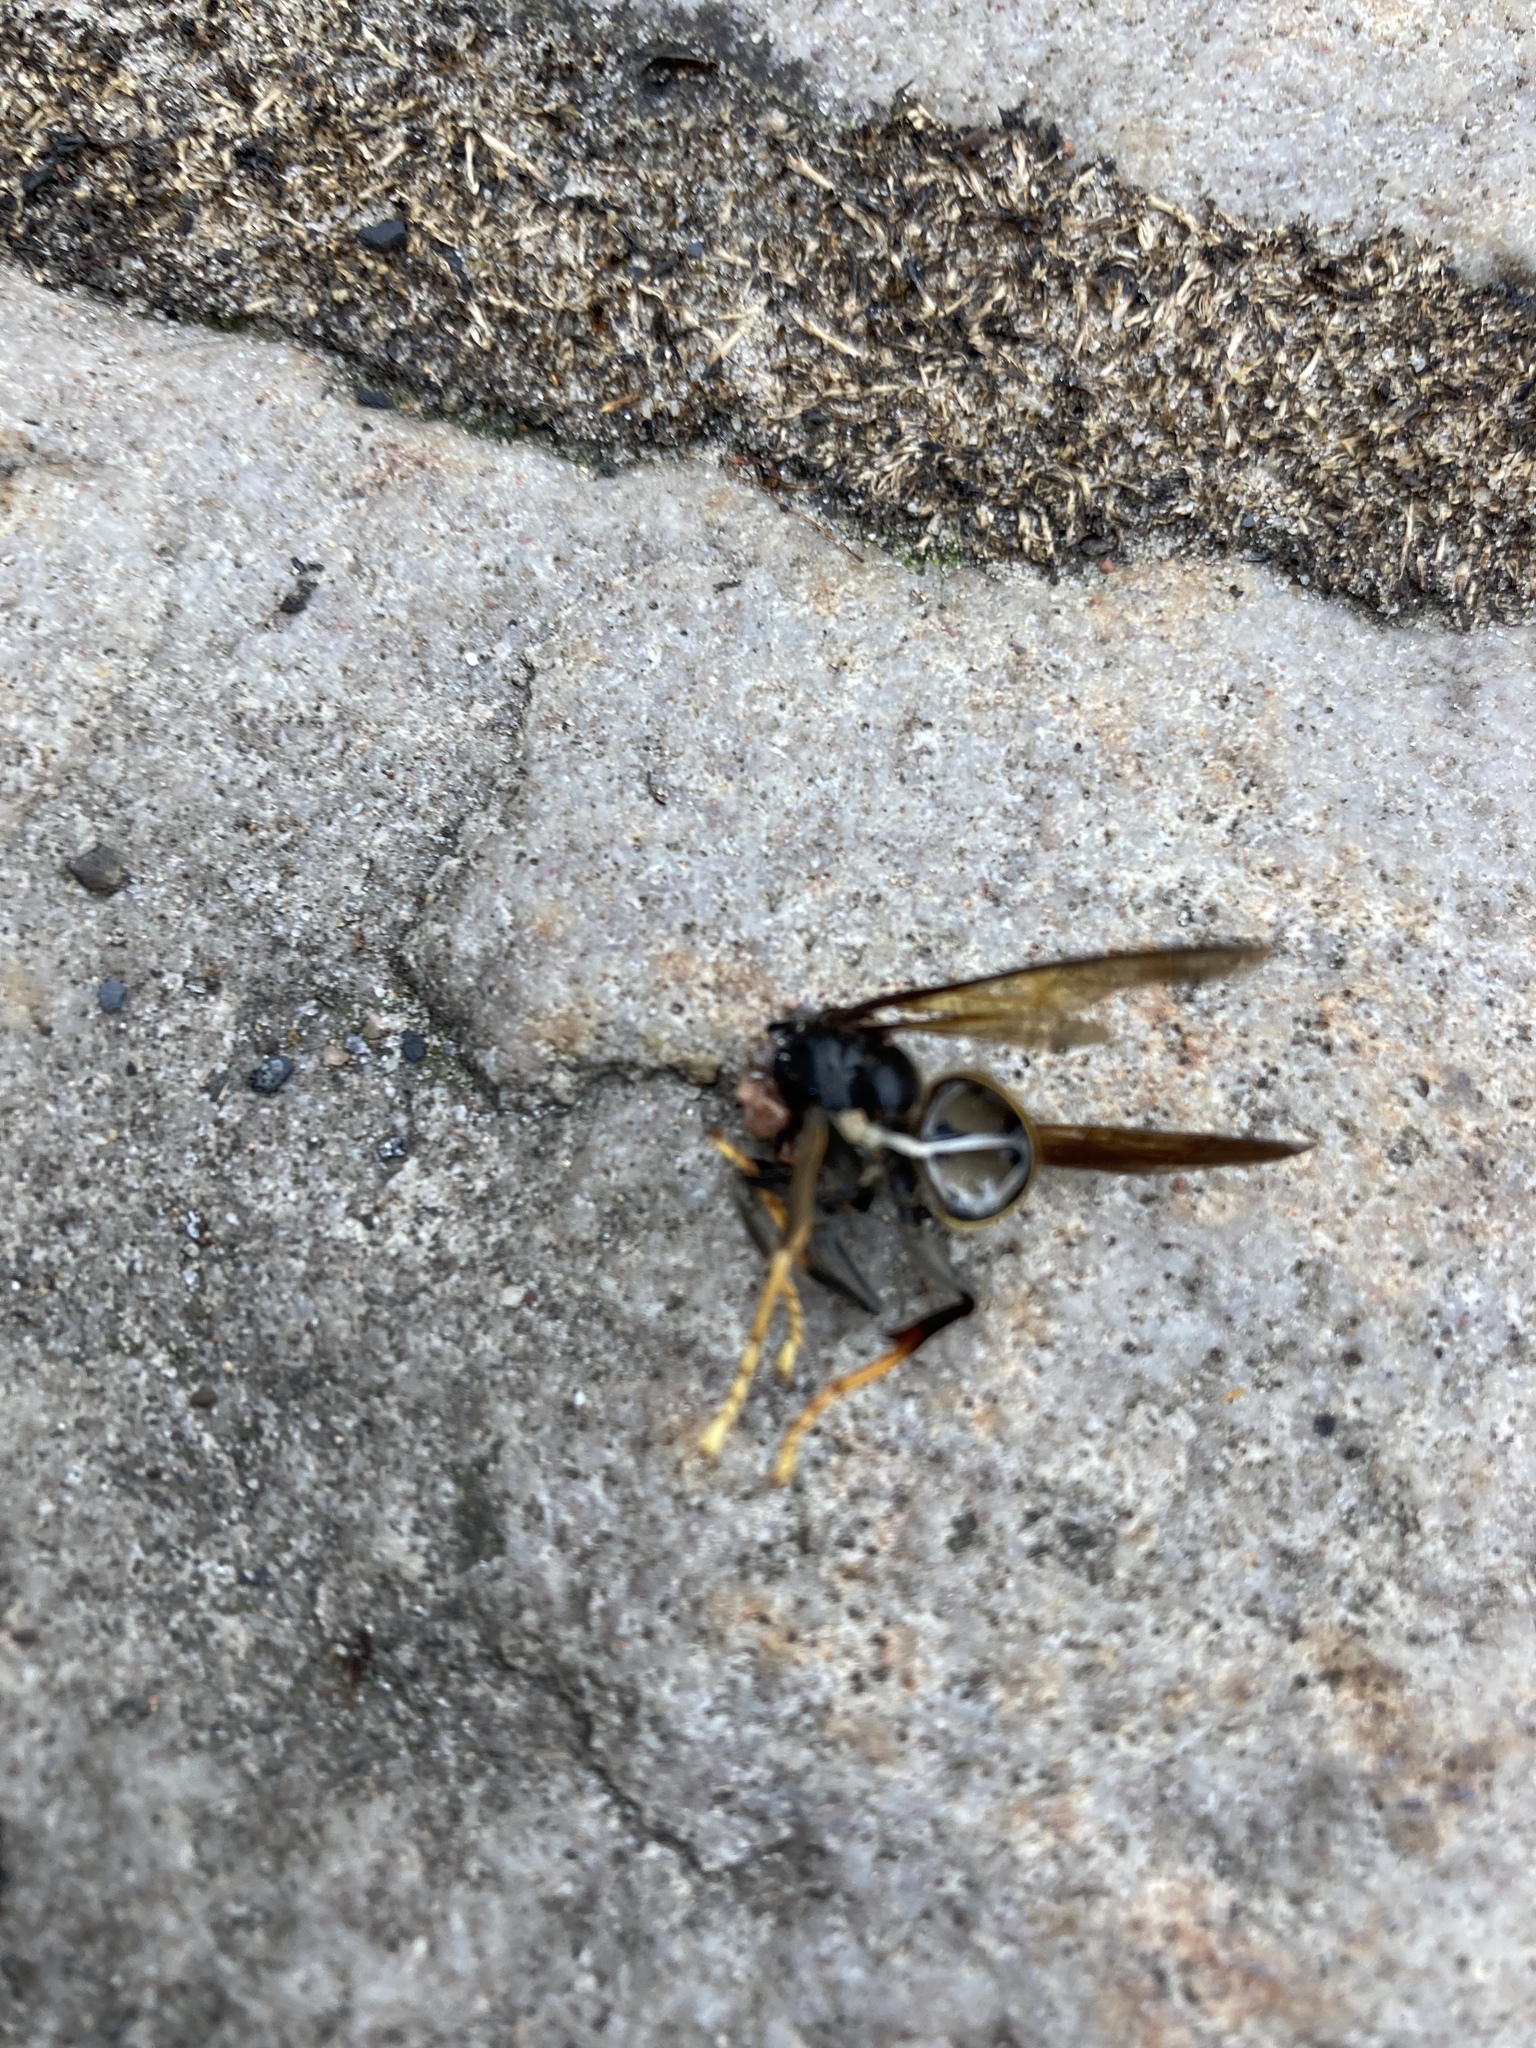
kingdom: Animalia
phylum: Arthropoda
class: Insecta
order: Hymenoptera
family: Vespidae
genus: Vespa
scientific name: Vespa velutina
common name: Asian hornet
